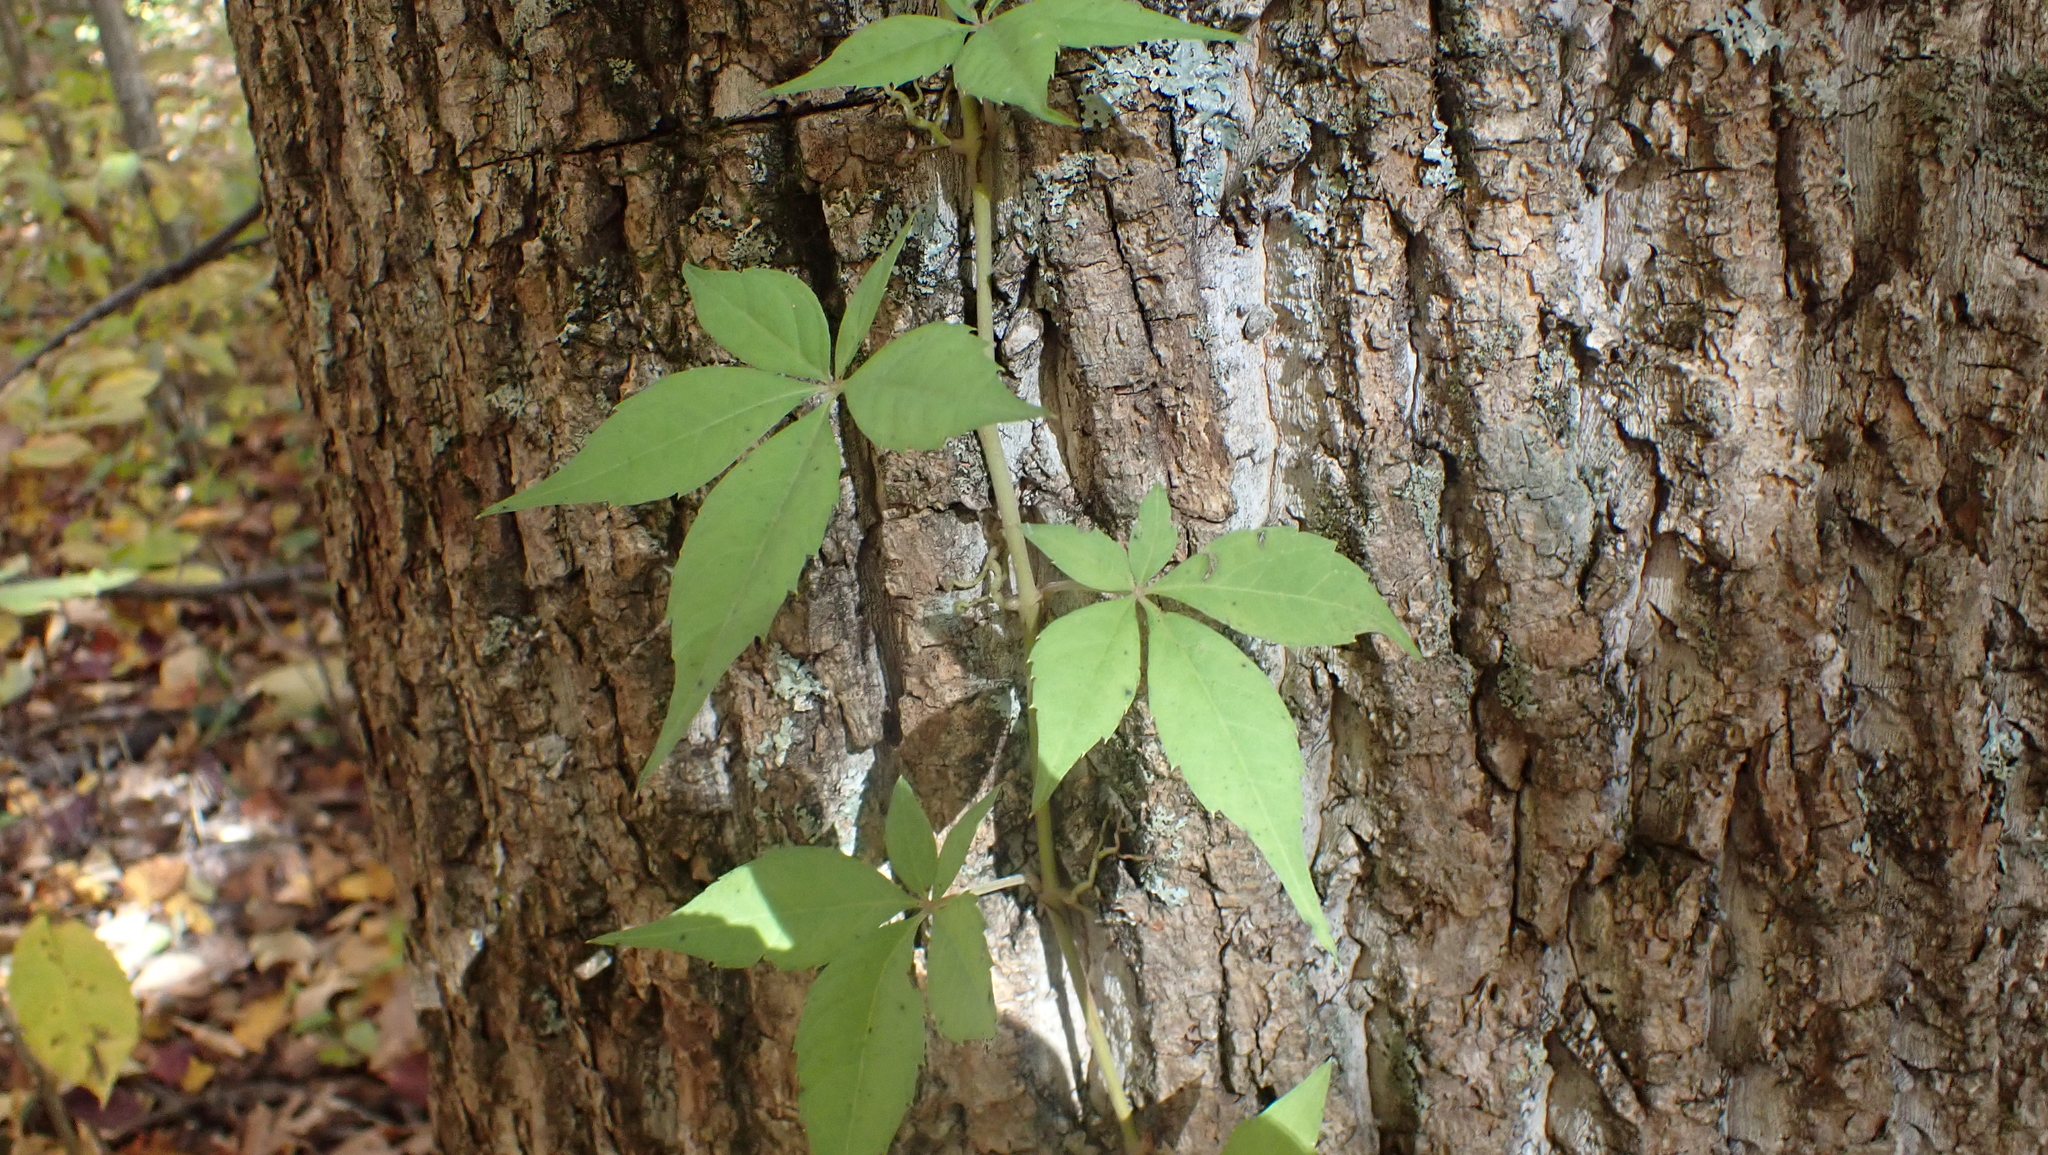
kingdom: Plantae
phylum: Tracheophyta
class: Magnoliopsida
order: Vitales
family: Vitaceae
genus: Parthenocissus
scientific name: Parthenocissus quinquefolia
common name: Virginia-creeper
